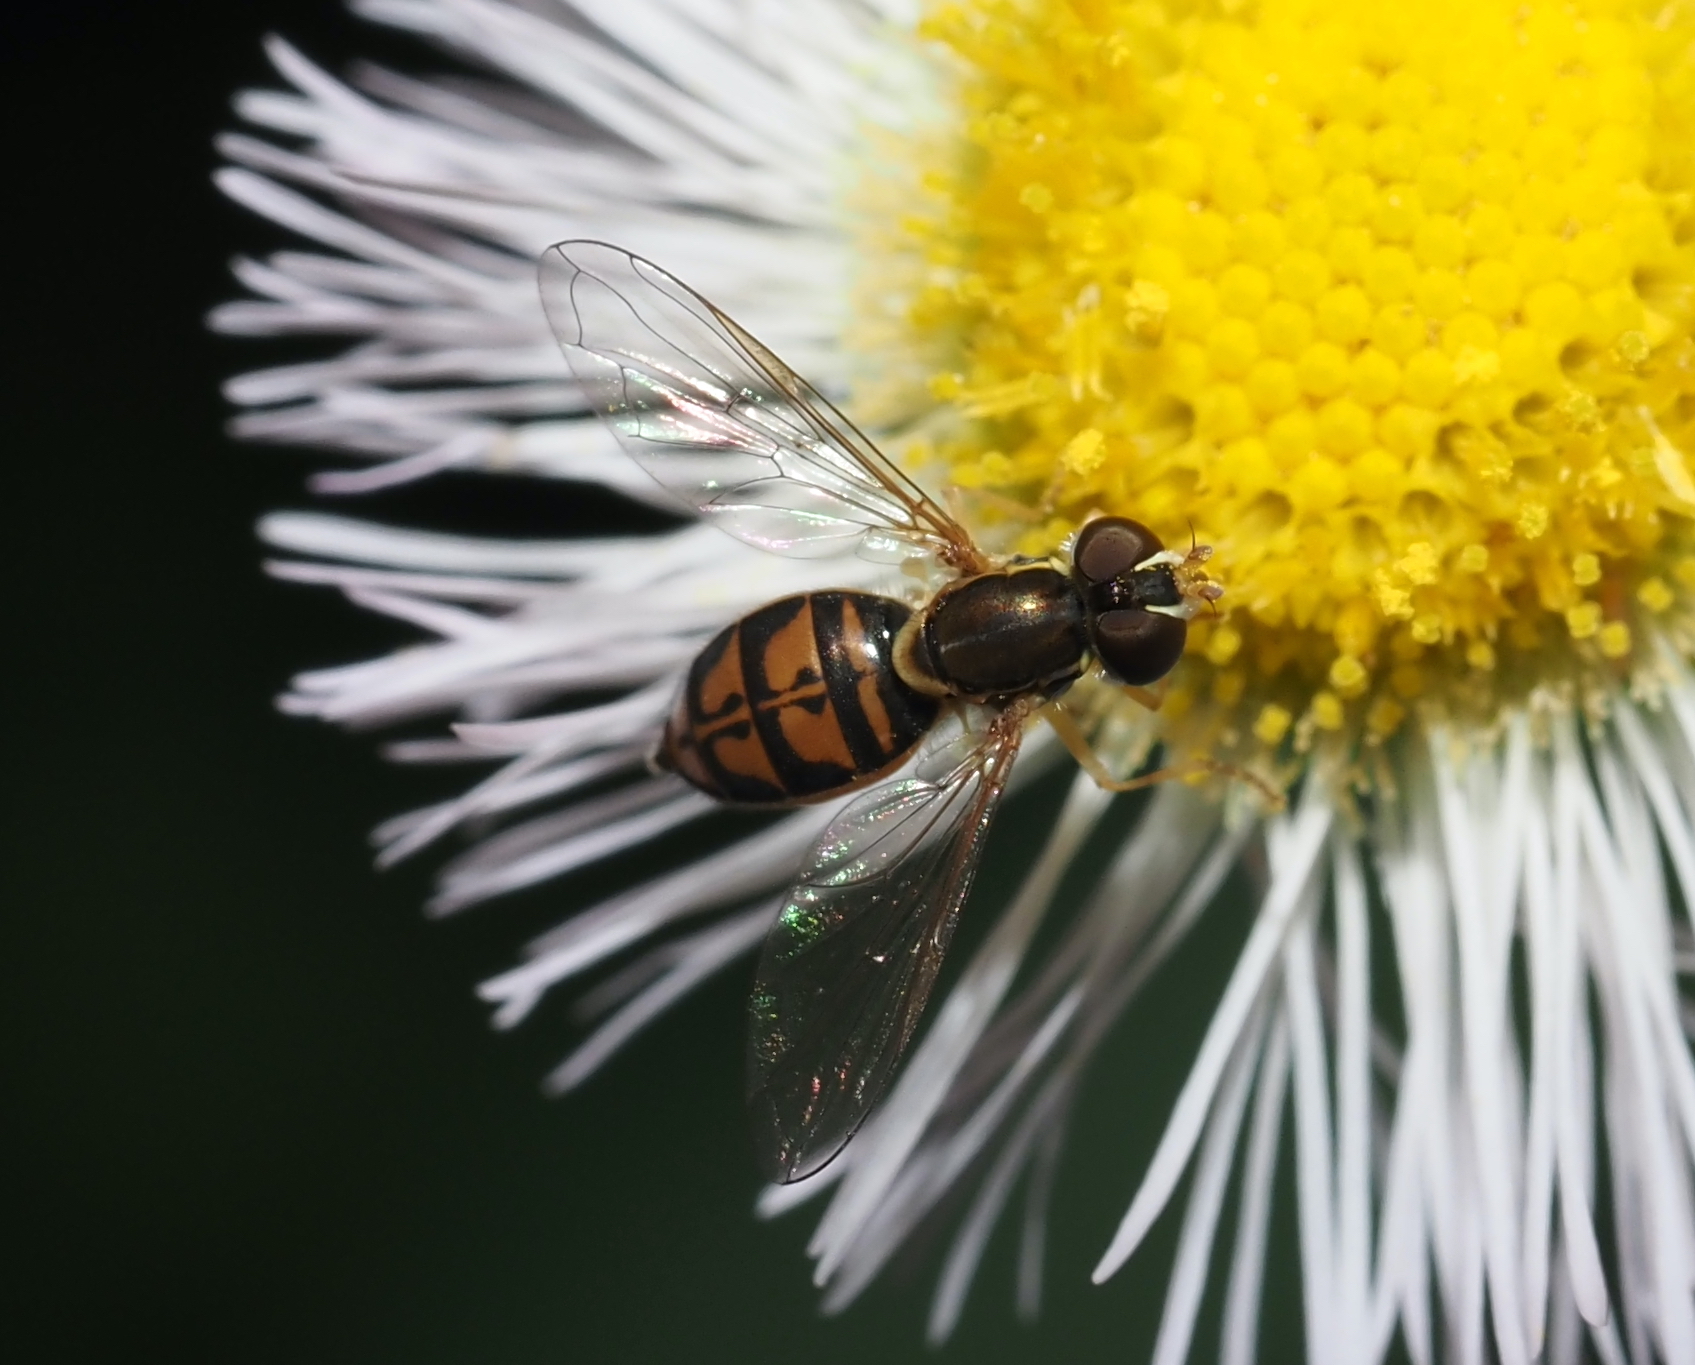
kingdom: Animalia
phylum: Arthropoda
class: Insecta
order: Diptera
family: Syrphidae
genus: Toxomerus
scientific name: Toxomerus marginatus
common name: Syrphid fly
